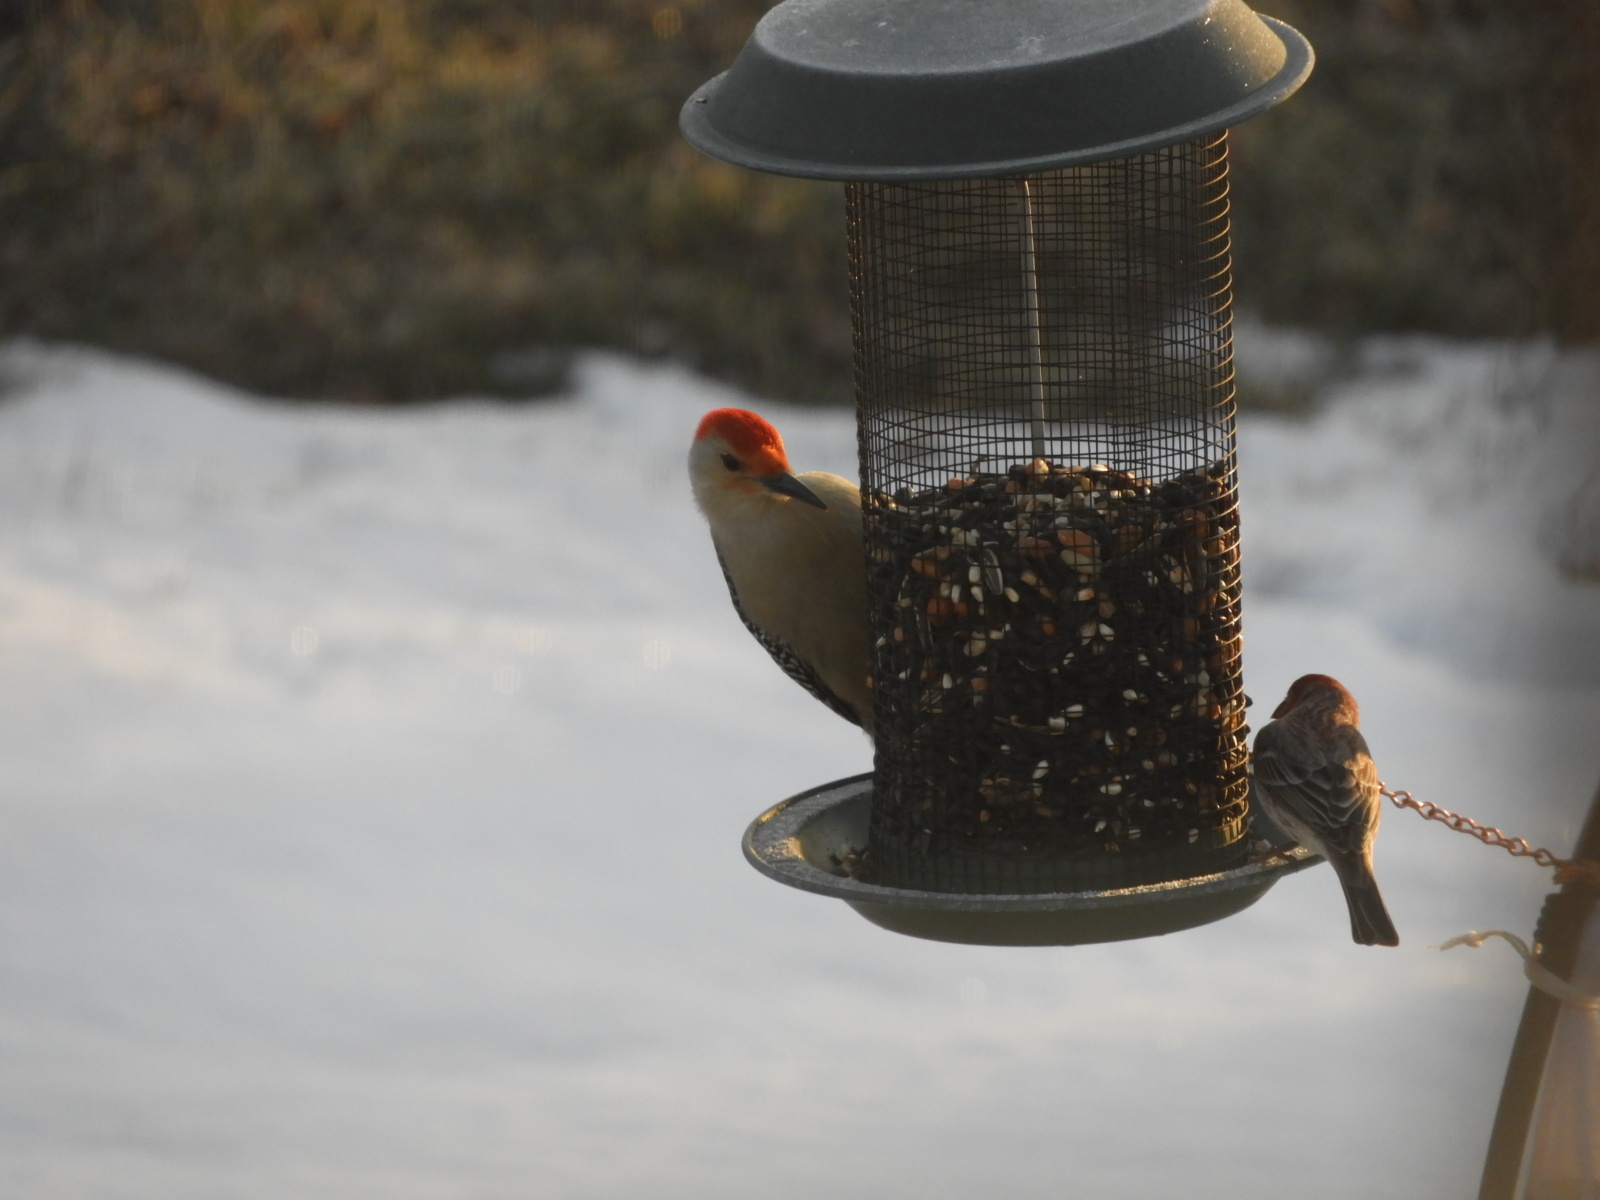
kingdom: Animalia
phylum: Chordata
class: Aves
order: Piciformes
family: Picidae
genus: Melanerpes
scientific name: Melanerpes carolinus
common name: Red-bellied woodpecker
